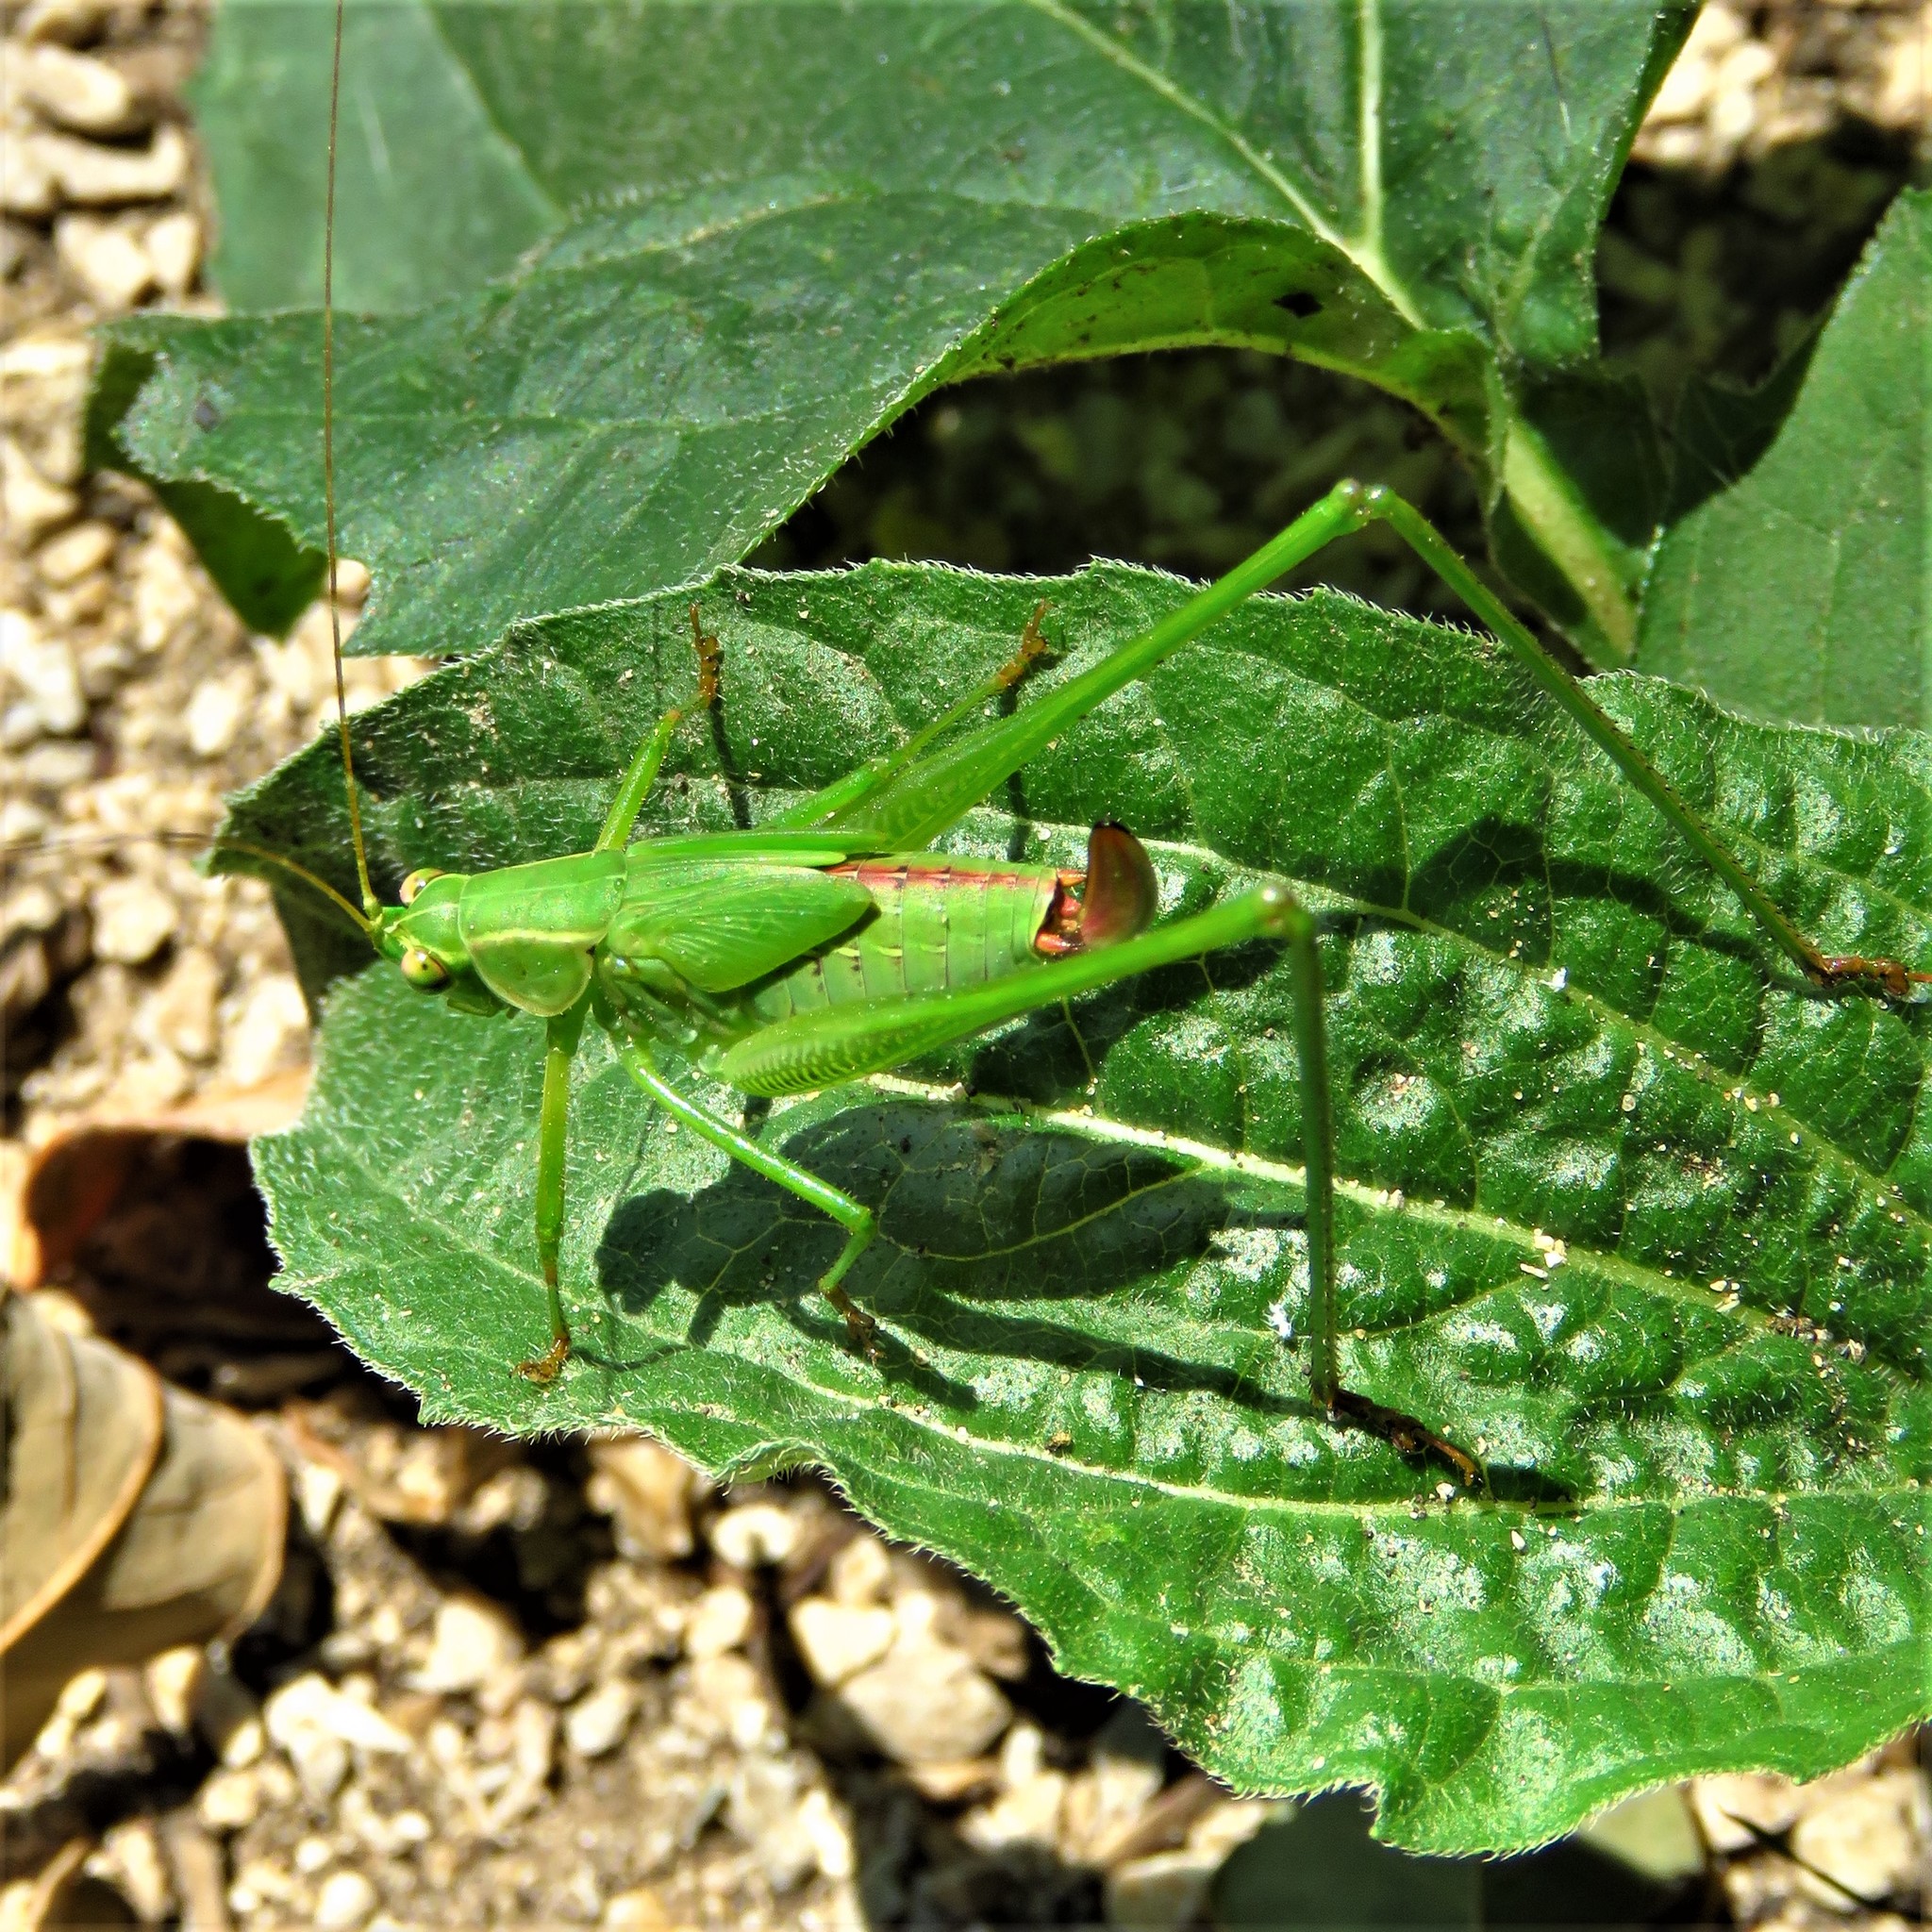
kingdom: Animalia
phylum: Arthropoda
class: Insecta
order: Orthoptera
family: Tettigoniidae
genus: Scudderia
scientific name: Scudderia furcata
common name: Fork-tailed bush katydid
